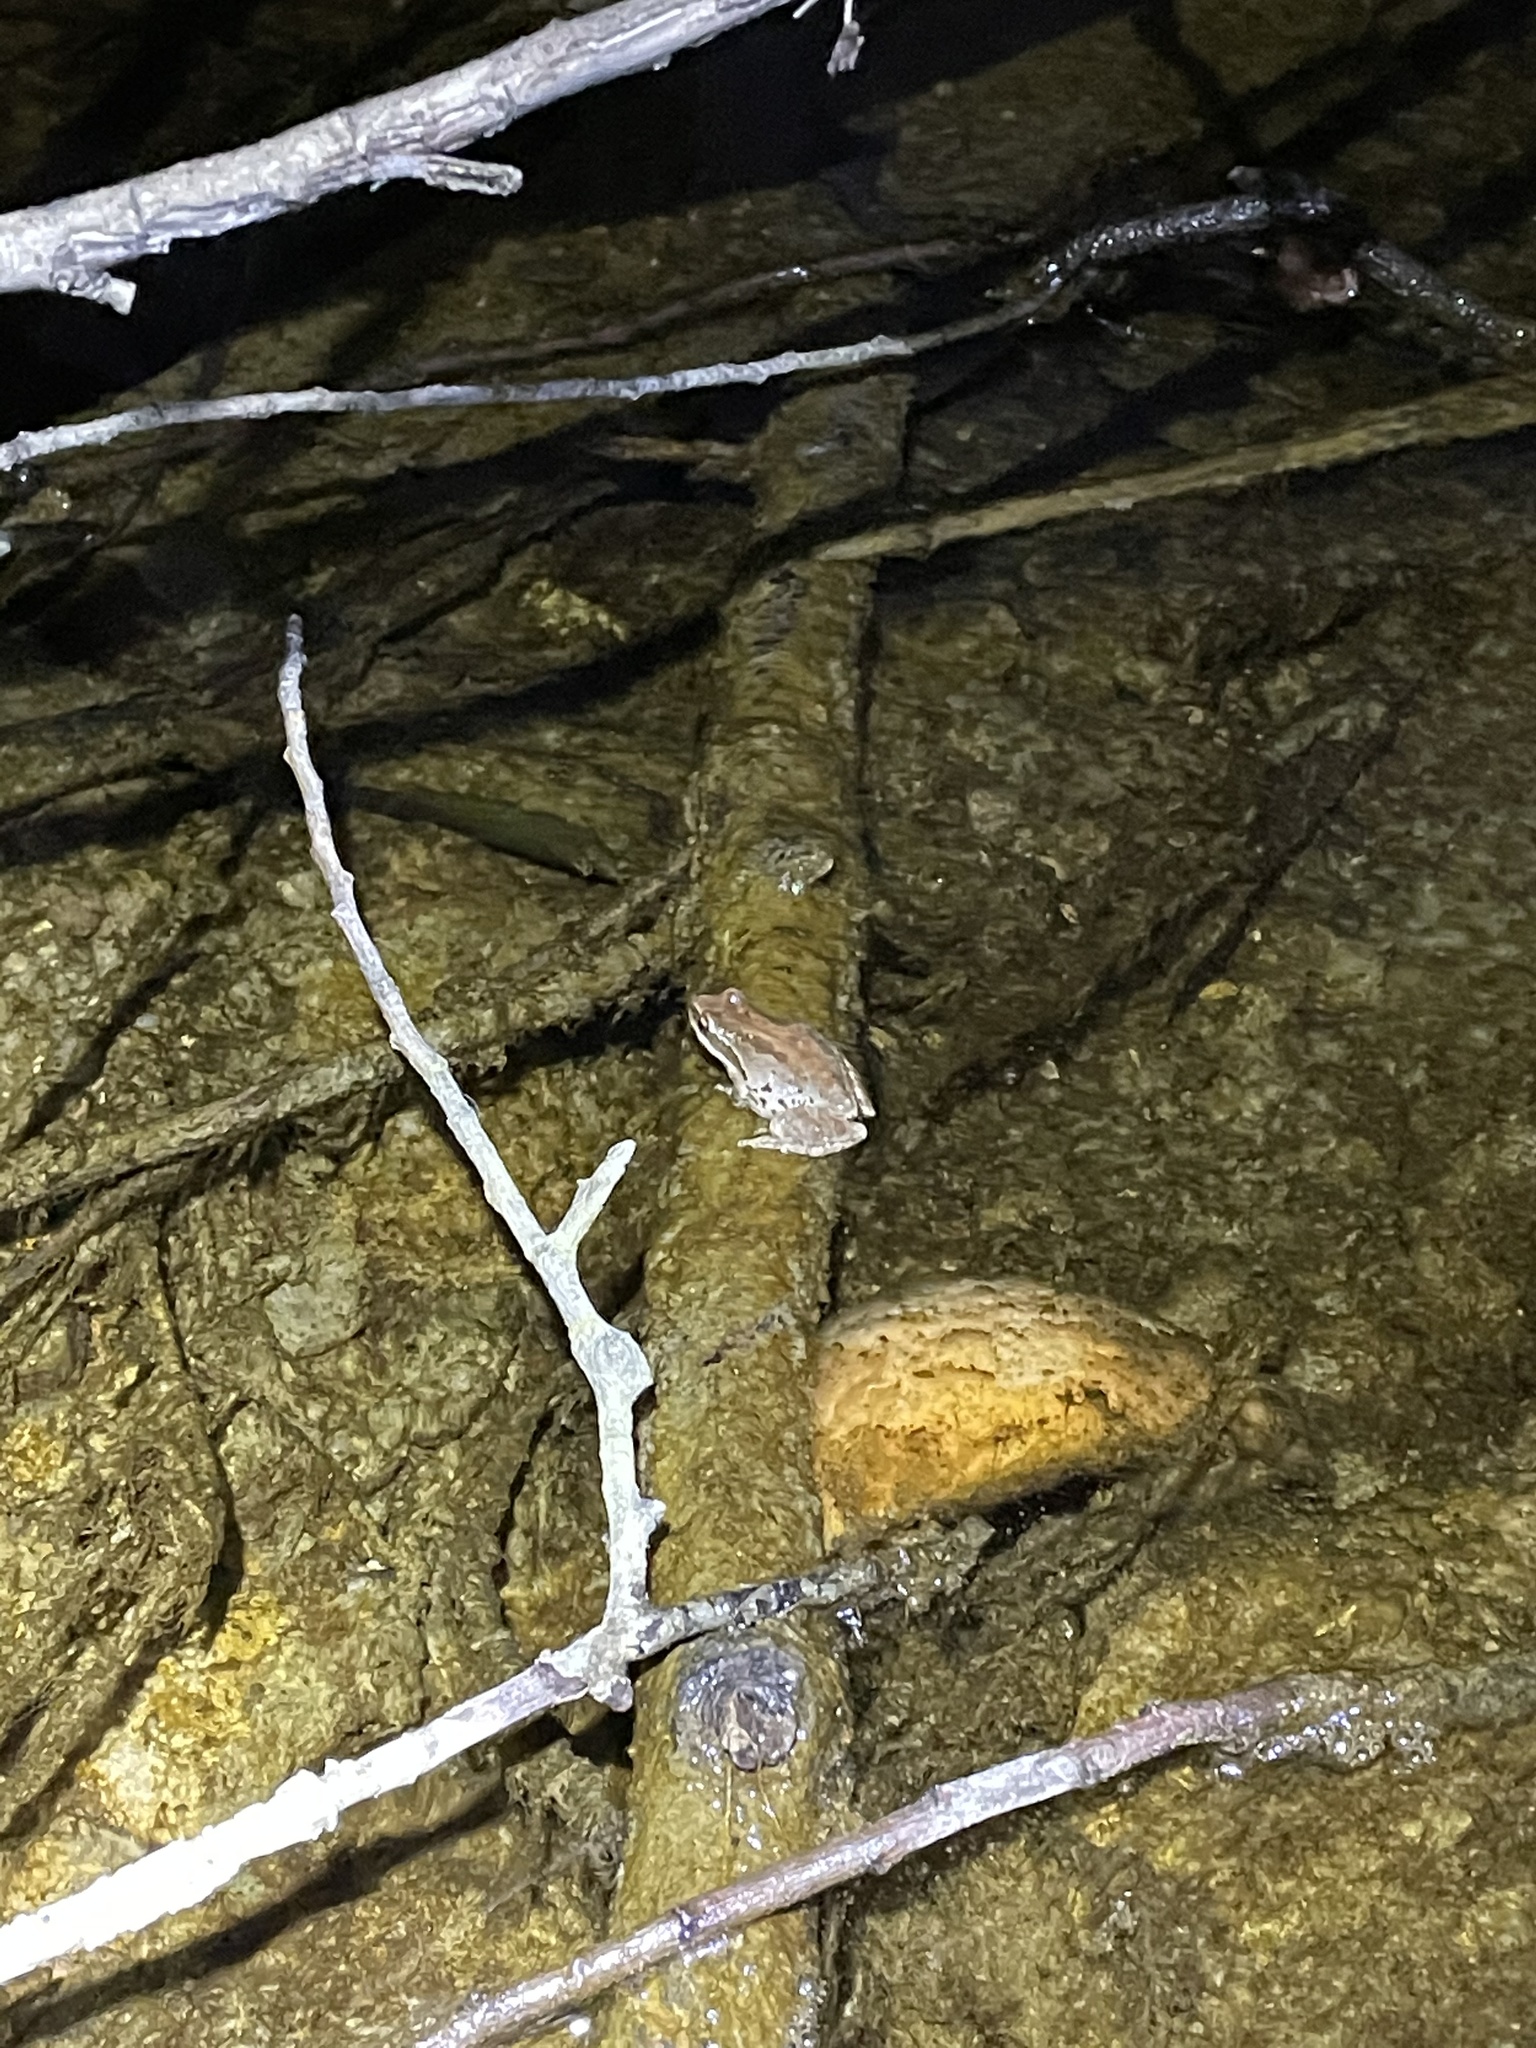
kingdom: Animalia
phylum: Chordata
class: Amphibia
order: Anura
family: Hylidae
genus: Pseudacris
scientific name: Pseudacris regilla
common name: Pacific chorus frog
